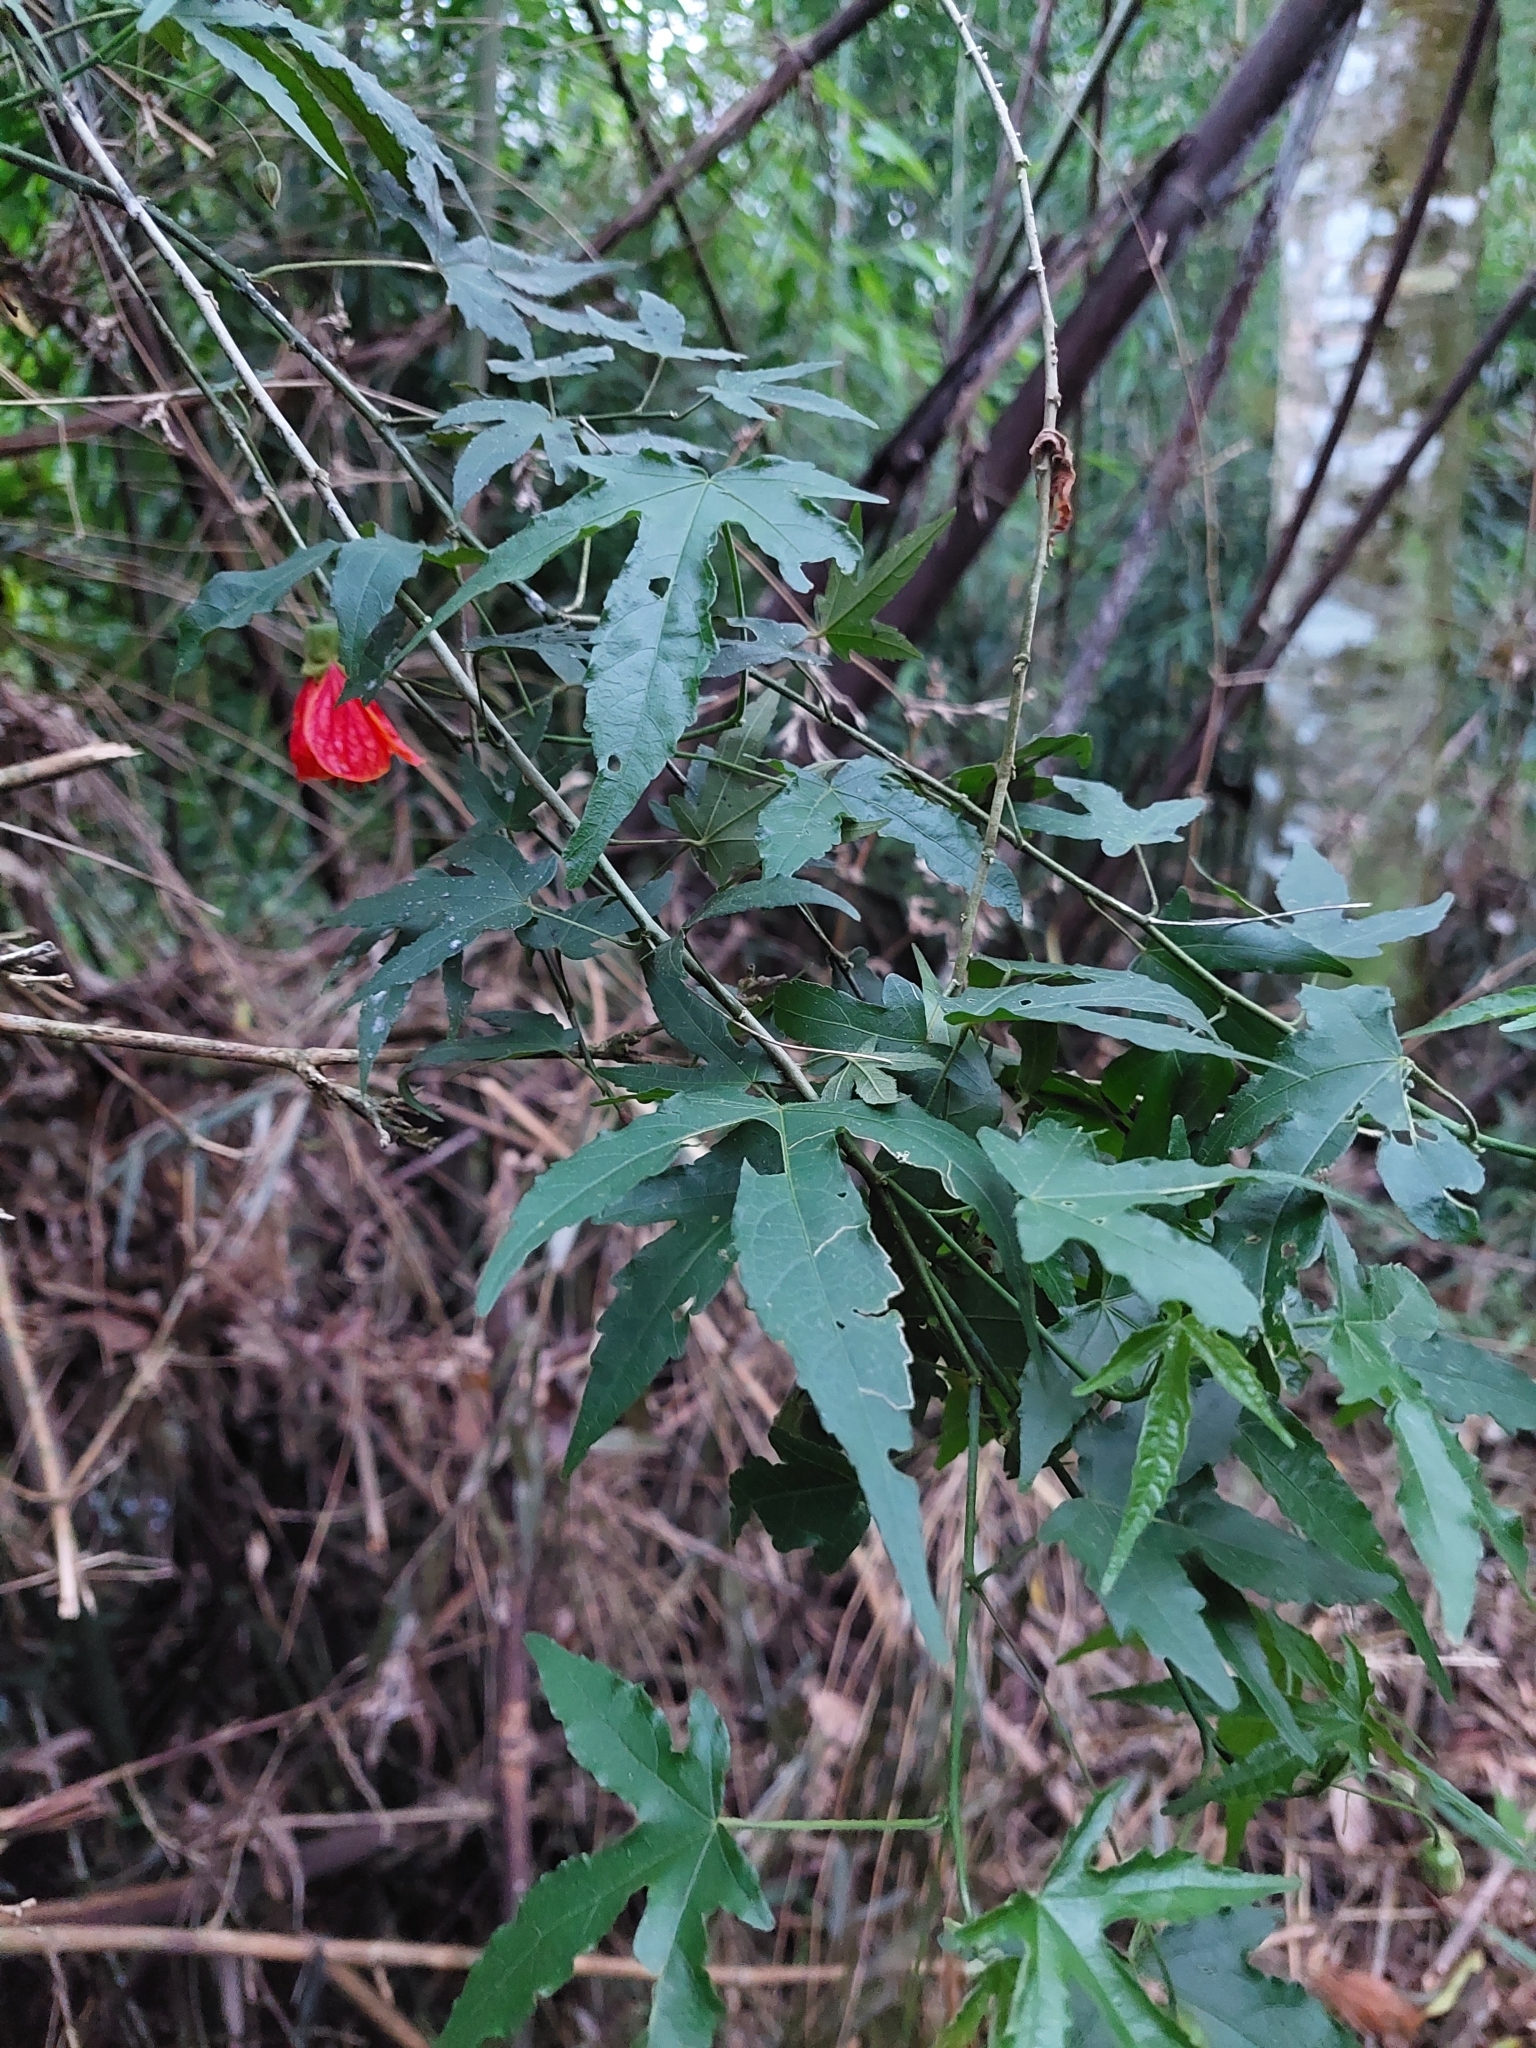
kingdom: Plantae
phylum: Tracheophyta
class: Magnoliopsida
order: Malvales
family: Malvaceae
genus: Callianthe
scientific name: Callianthe picta
